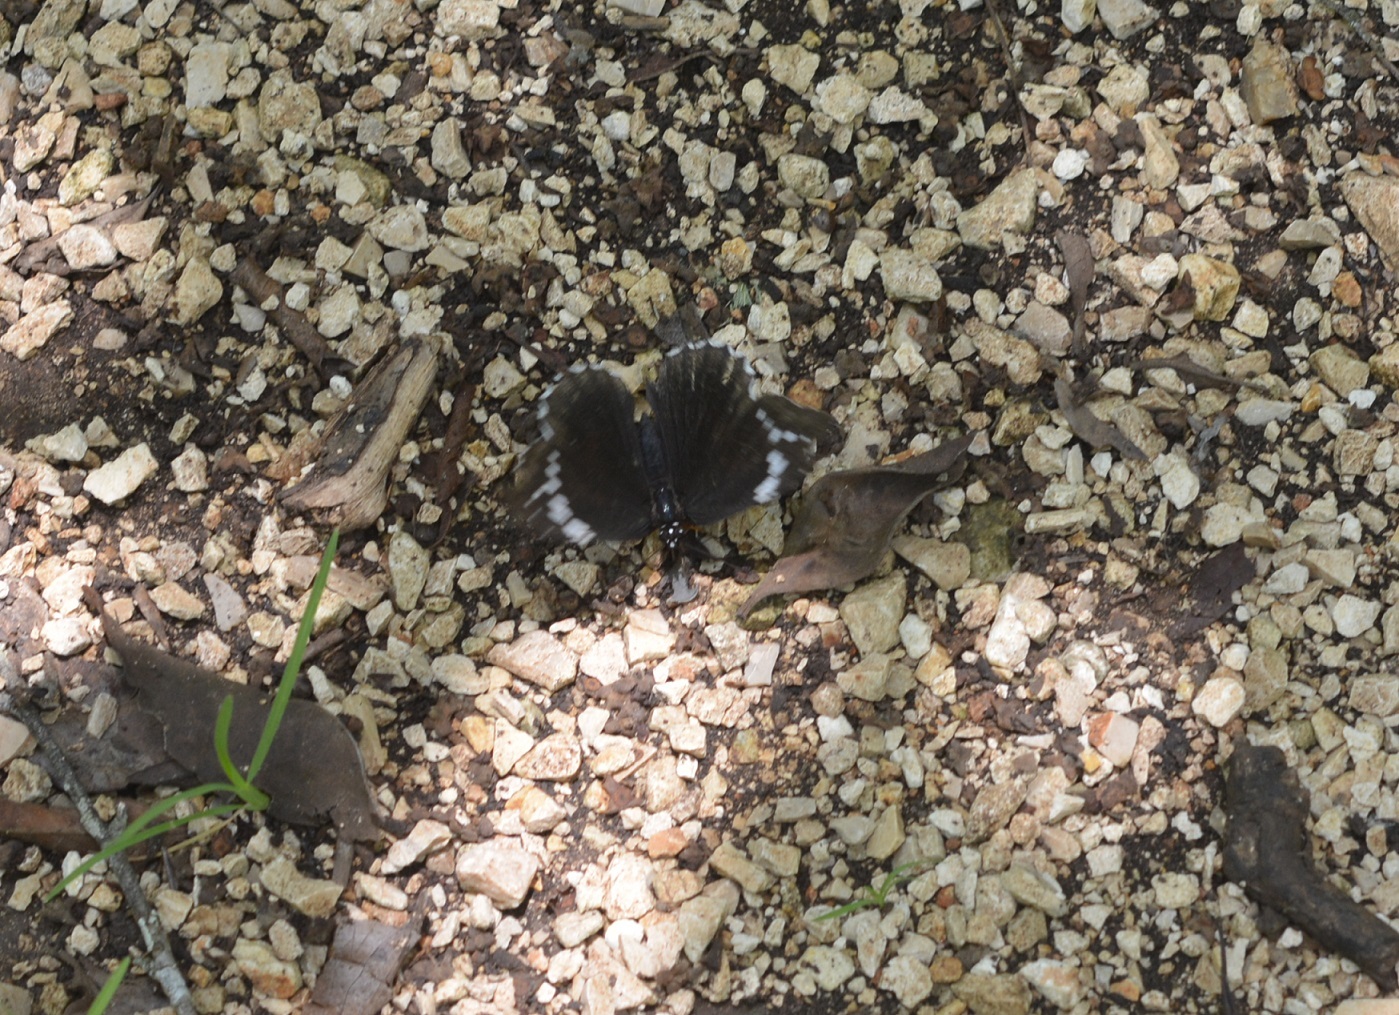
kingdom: Animalia
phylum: Arthropoda
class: Insecta
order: Lepidoptera
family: Nymphalidae
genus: Chlosyne
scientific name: Chlosyne hippodrome
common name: Simple patch
